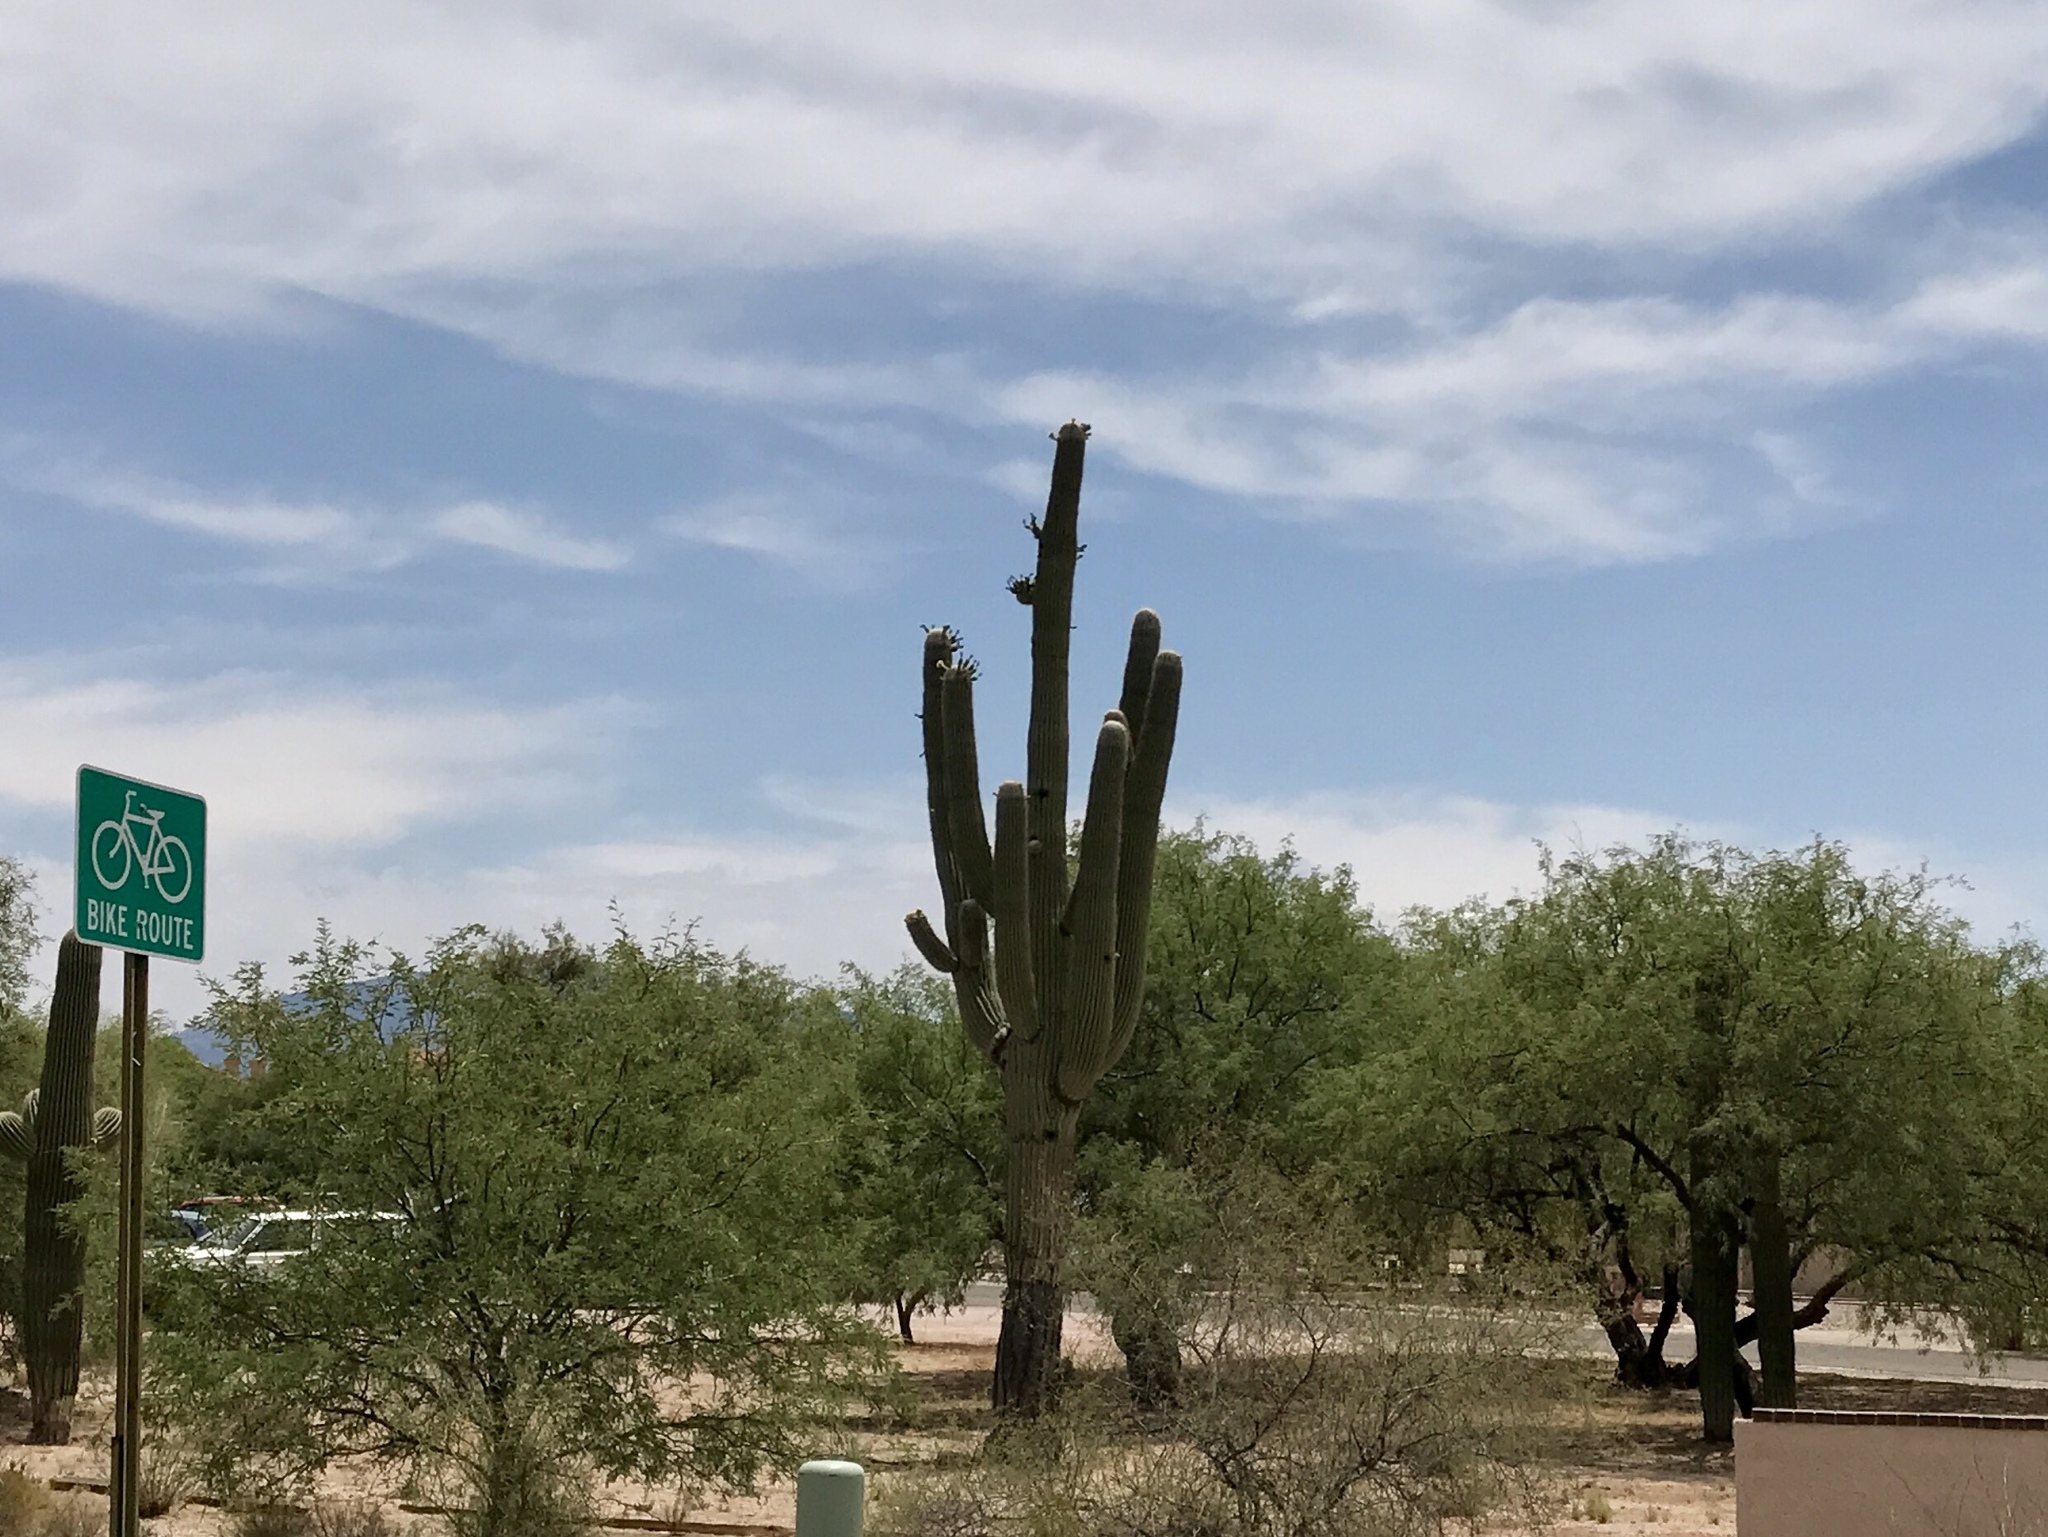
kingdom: Plantae
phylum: Tracheophyta
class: Magnoliopsida
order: Caryophyllales
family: Cactaceae
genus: Carnegiea
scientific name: Carnegiea gigantea
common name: Saguaro
